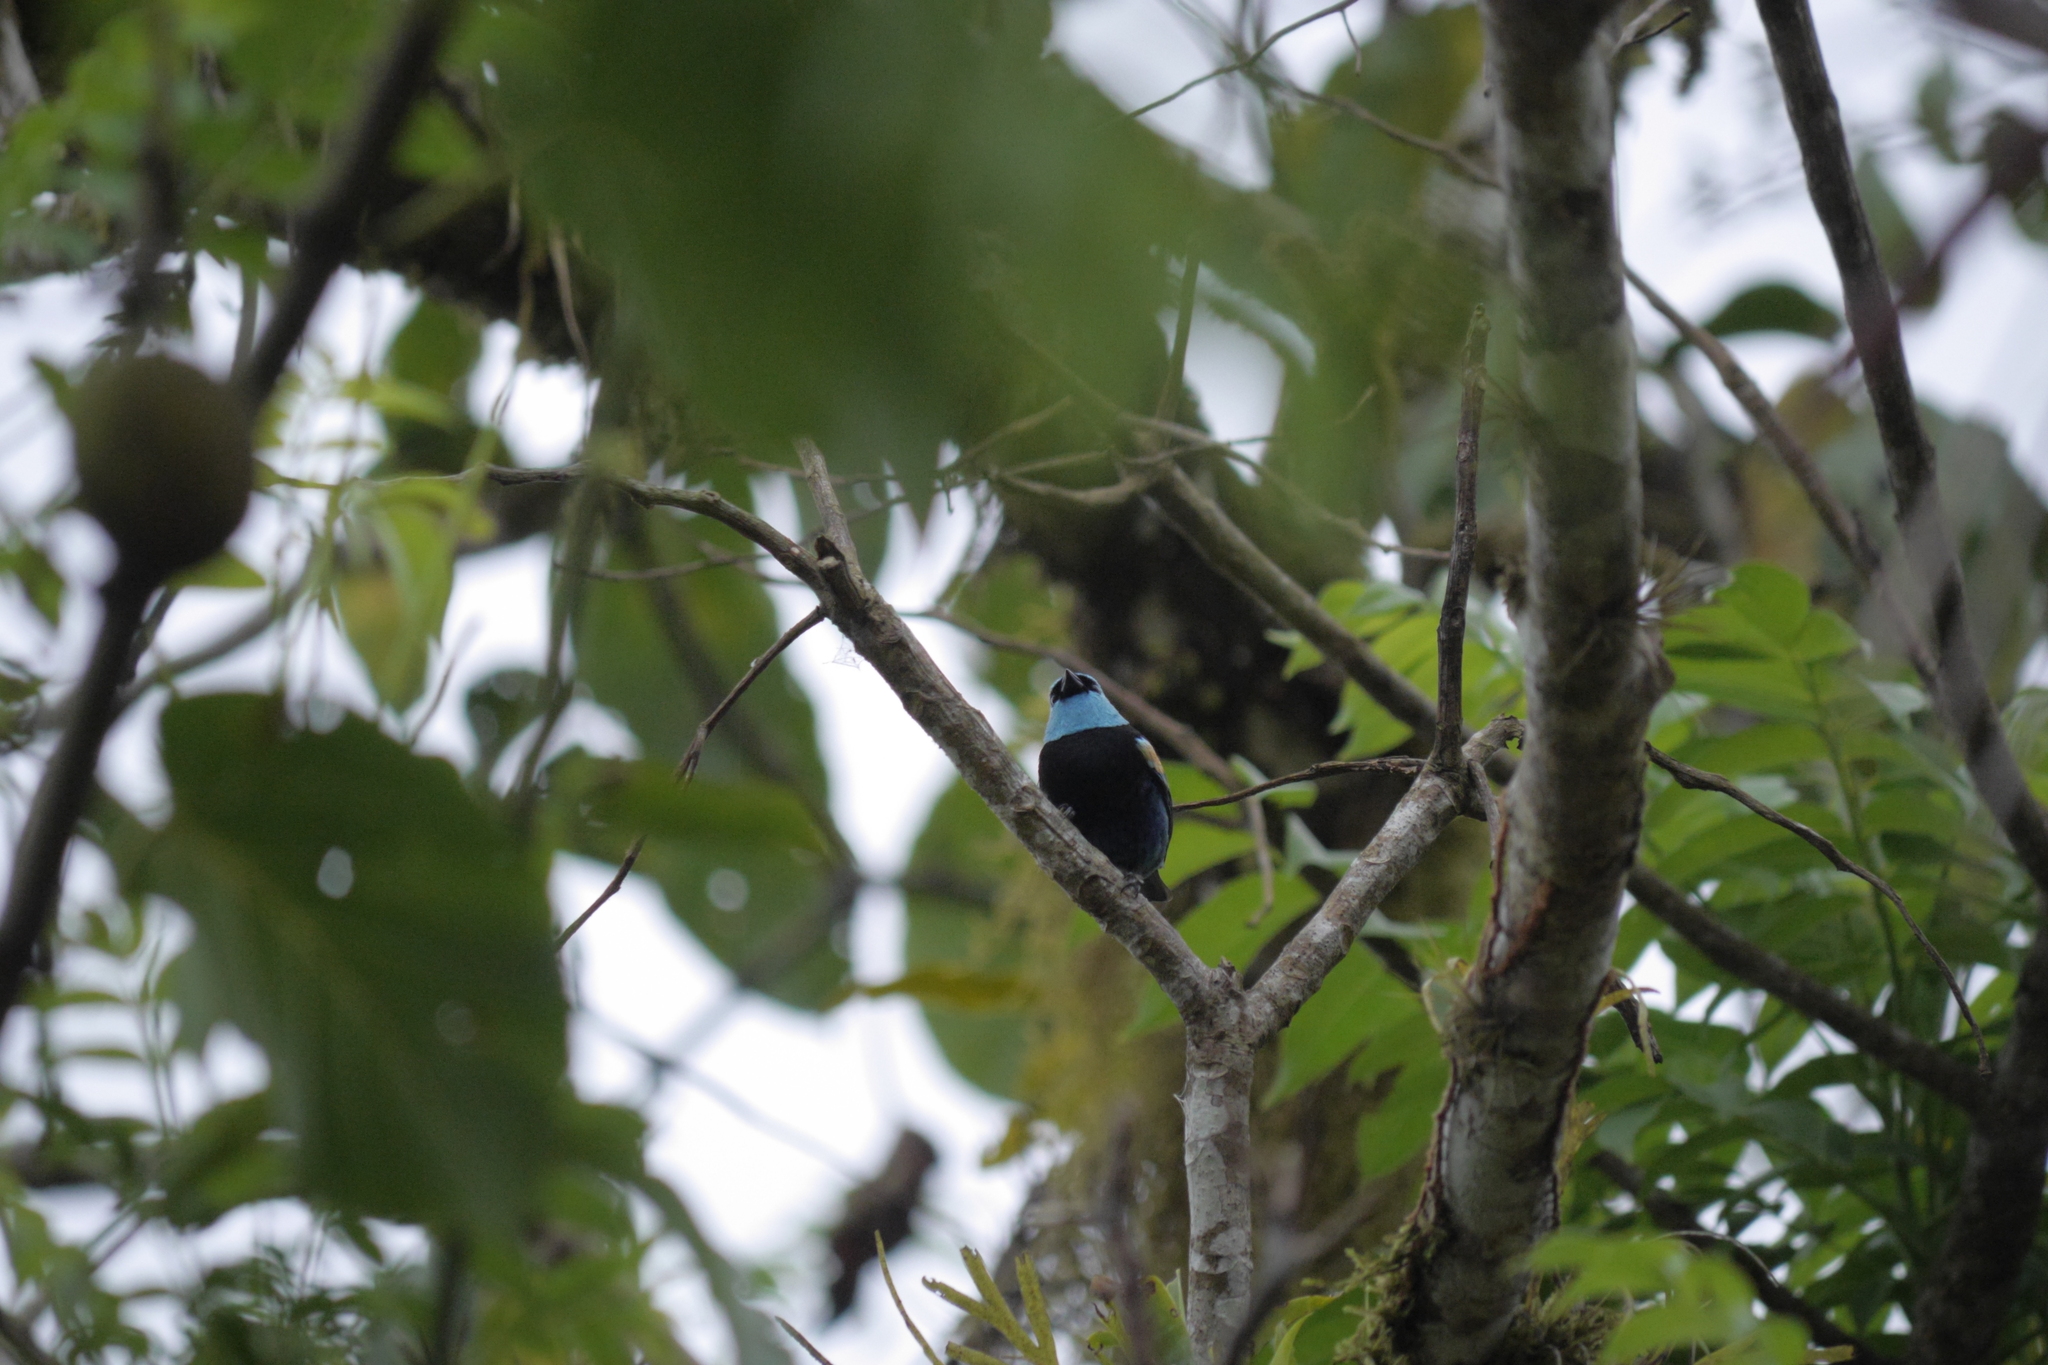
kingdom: Animalia
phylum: Chordata
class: Aves
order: Passeriformes
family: Thraupidae
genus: Stilpnia
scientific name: Stilpnia cyanicollis
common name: Blue-necked tanager
